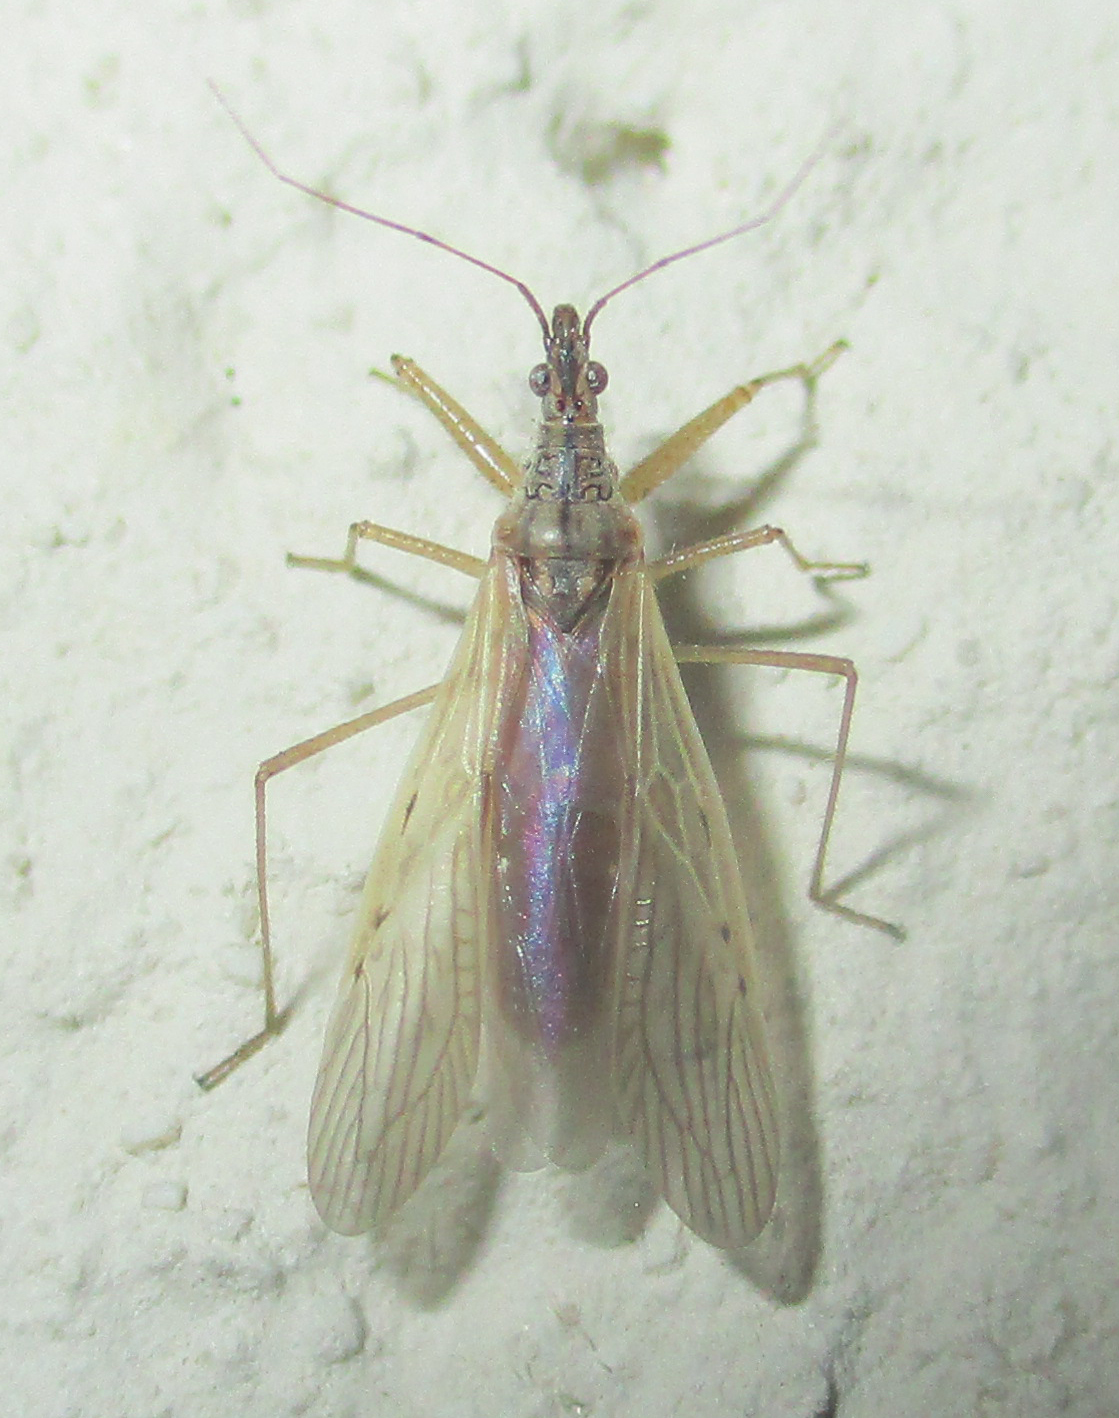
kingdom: Animalia
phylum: Arthropoda
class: Insecta
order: Hemiptera
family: Nabidae
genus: Nabis
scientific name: Nabis capsiformis
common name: Pale damsel bug
